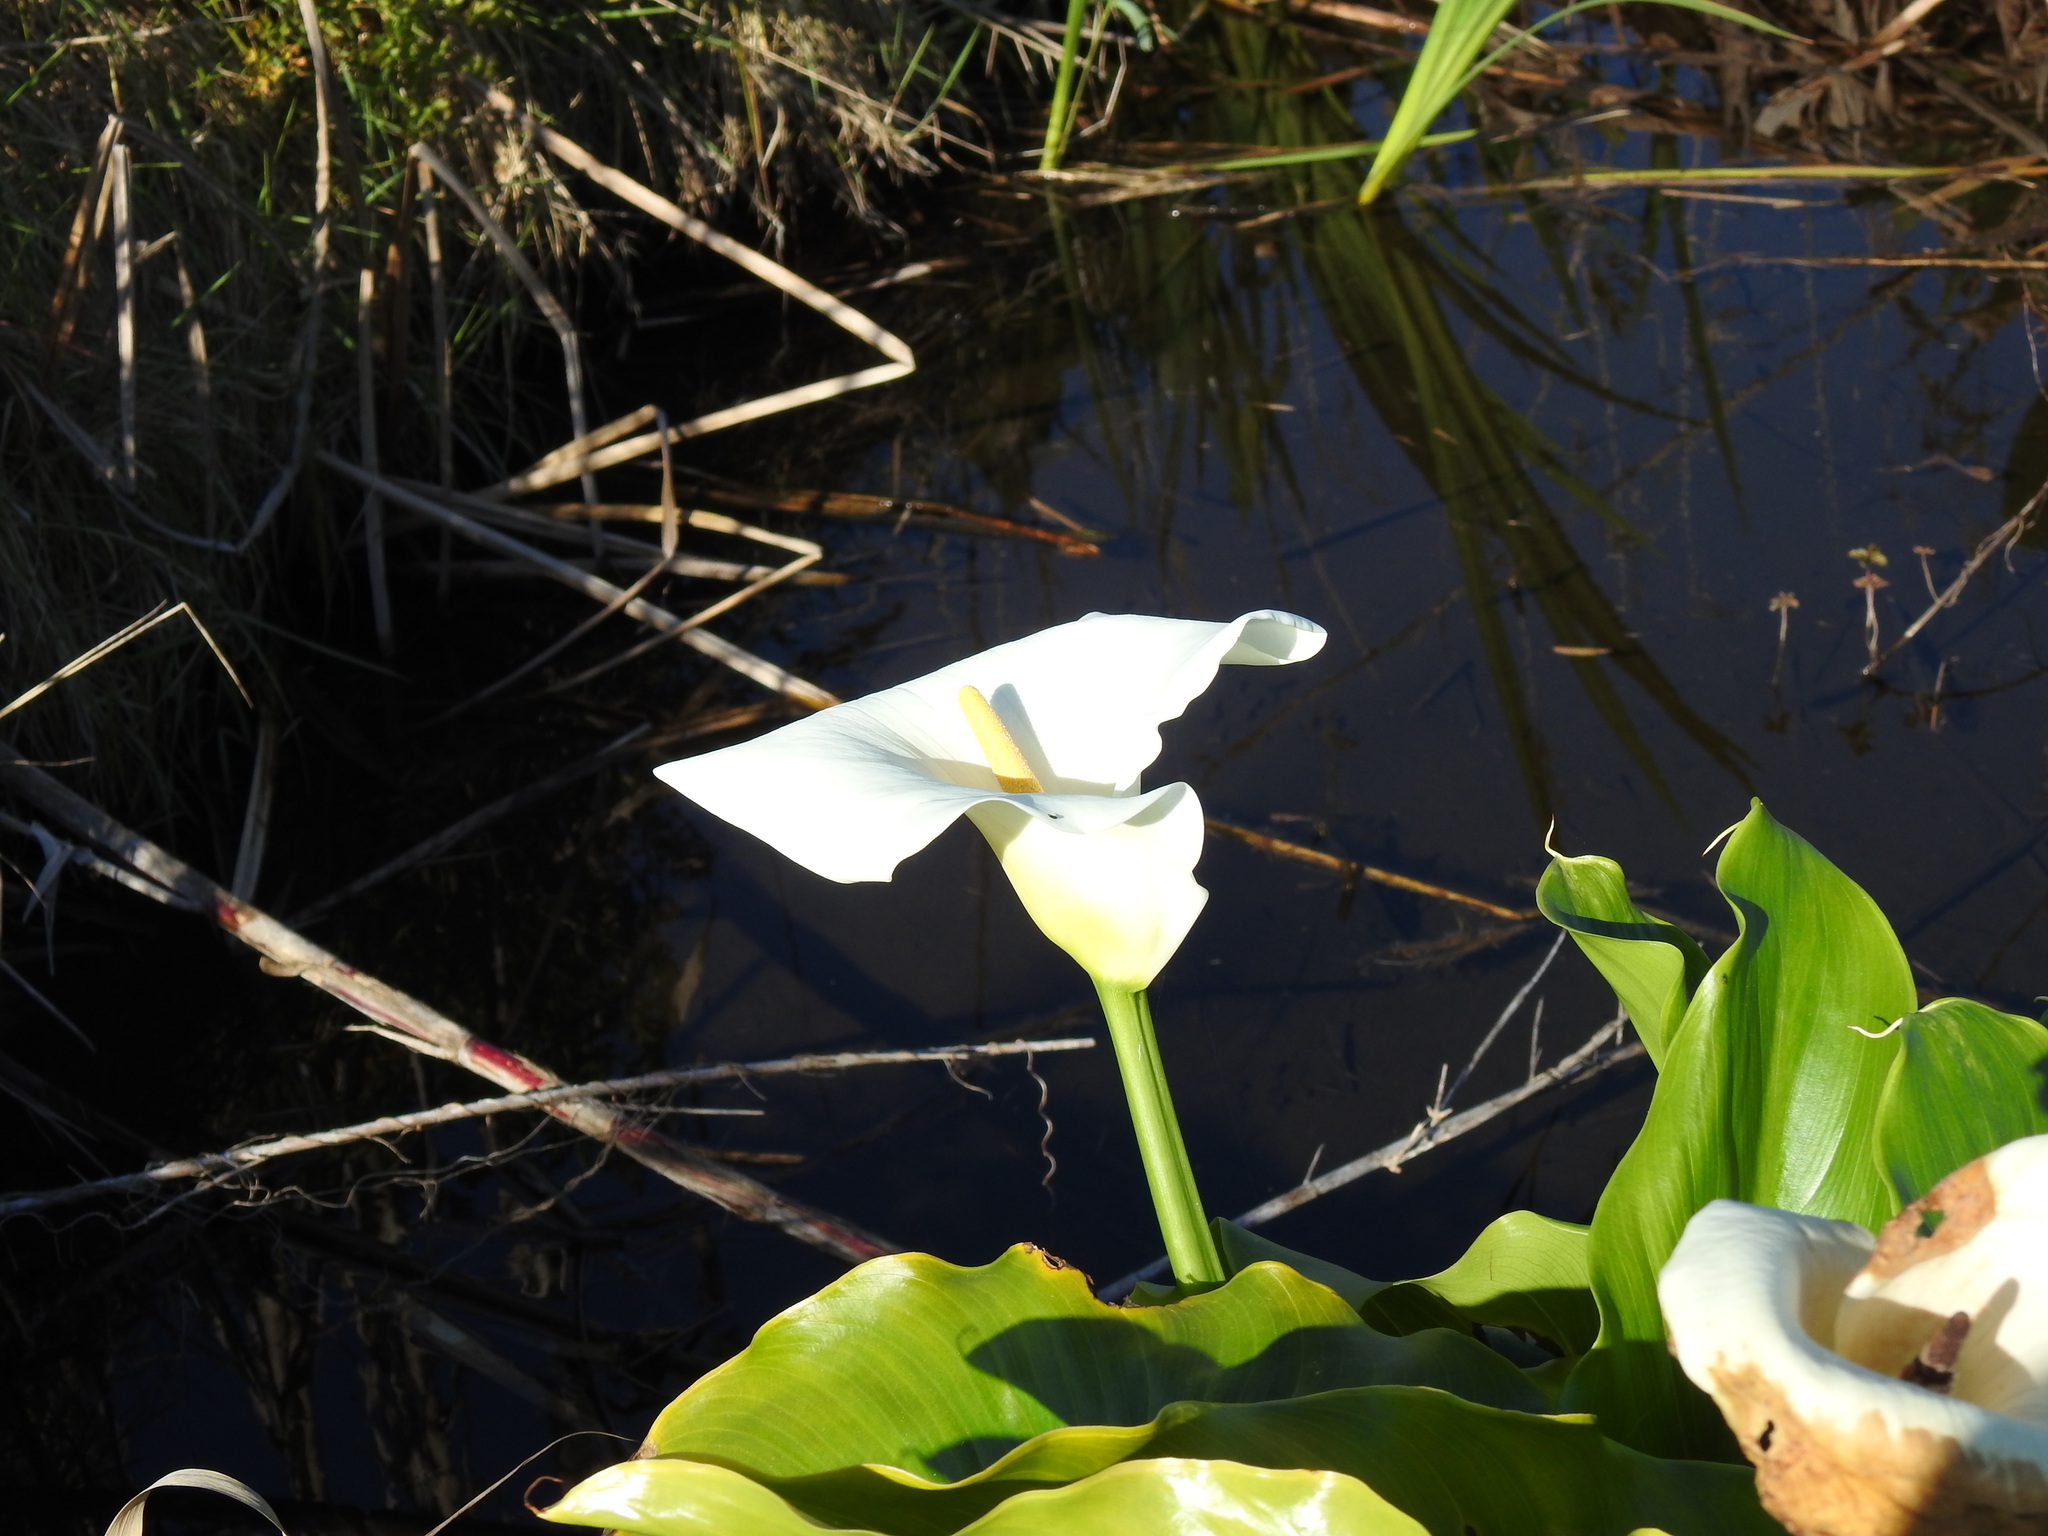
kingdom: Plantae
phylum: Tracheophyta
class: Liliopsida
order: Alismatales
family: Araceae
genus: Zantedeschia
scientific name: Zantedeschia aethiopica
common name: Altar-lily
